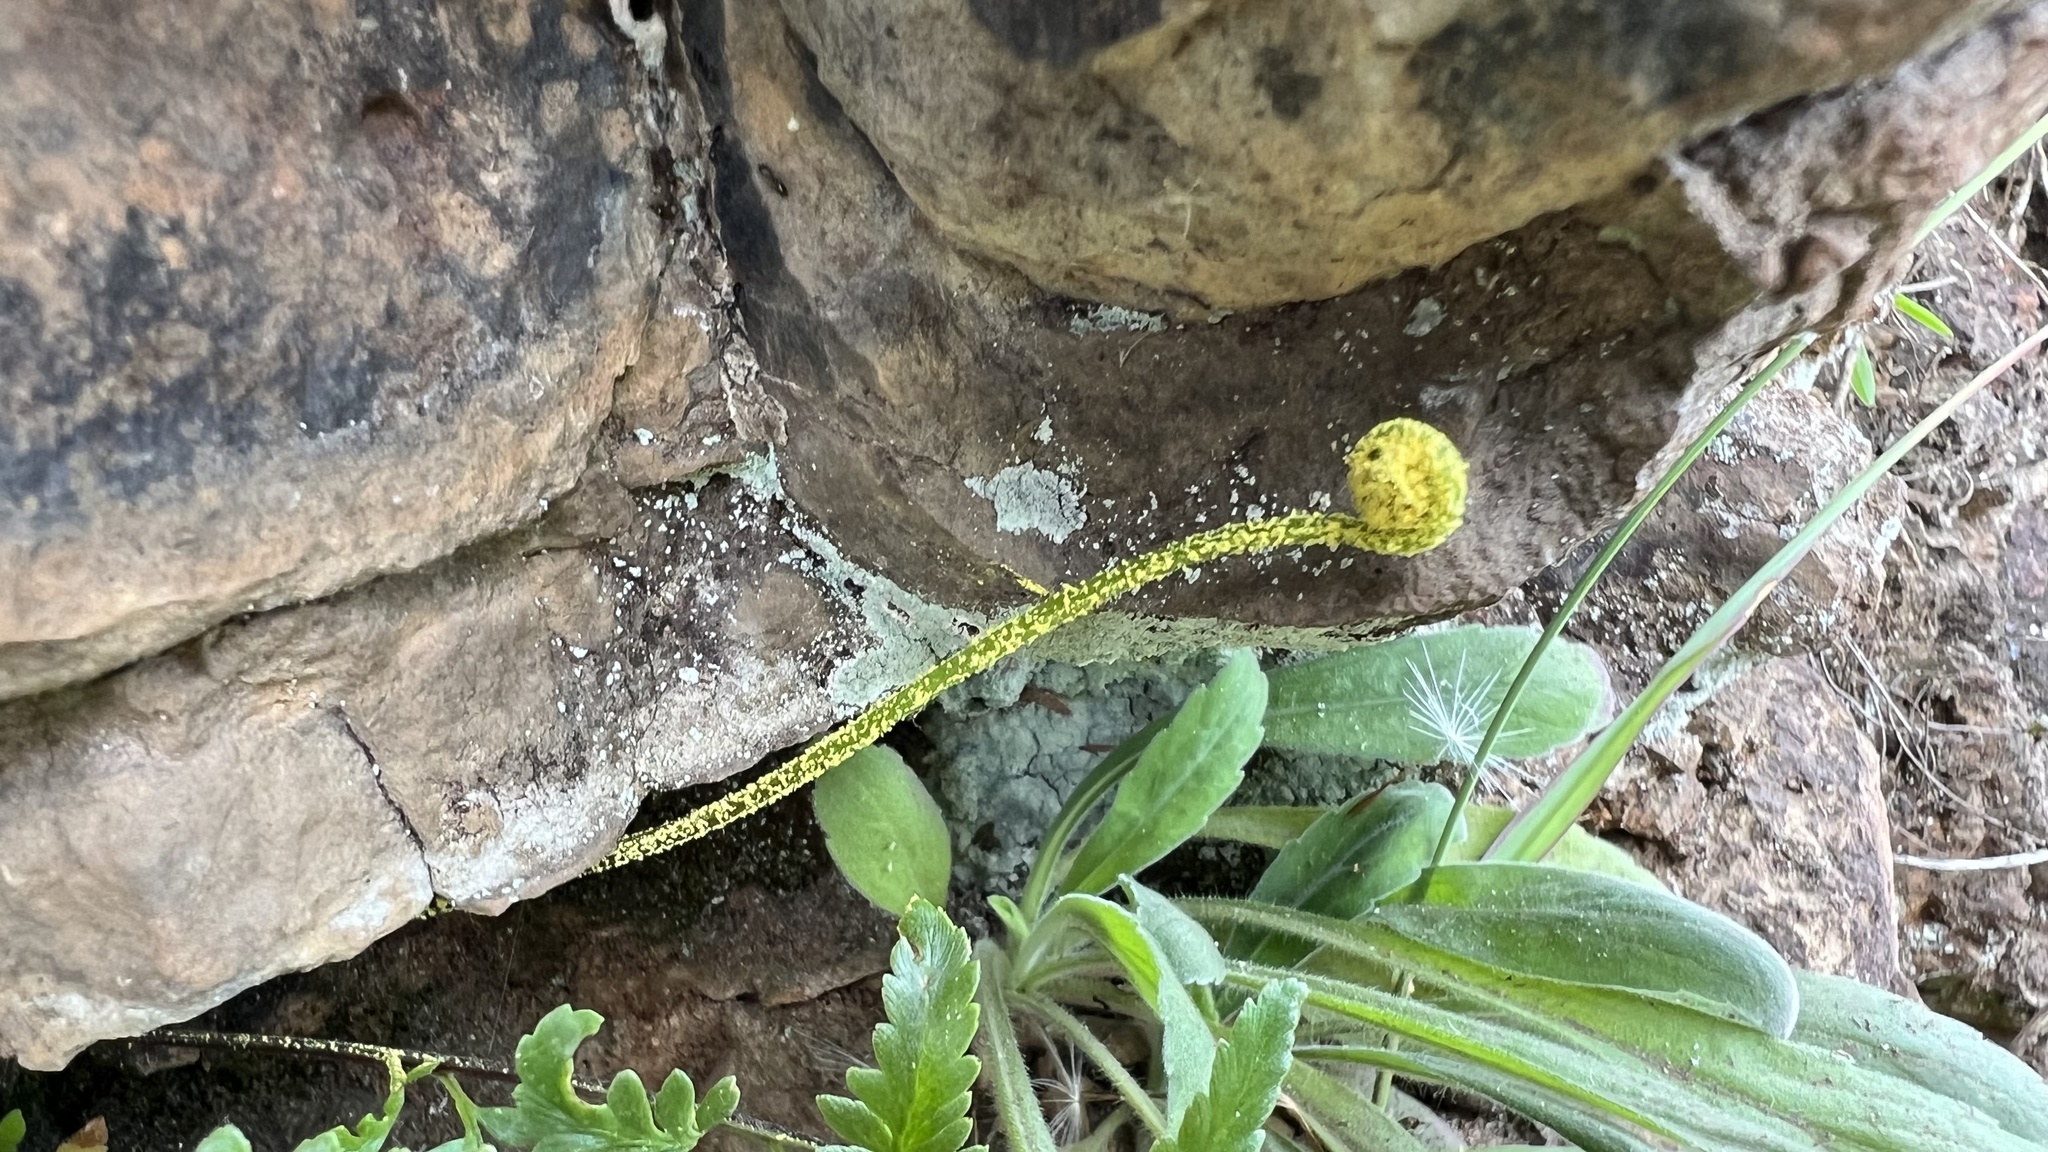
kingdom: Plantae
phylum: Tracheophyta
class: Polypodiopsida
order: Polypodiales
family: Pteridaceae
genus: Pityrogramma
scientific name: Pityrogramma calomelanos
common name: Dixie silverback fern
